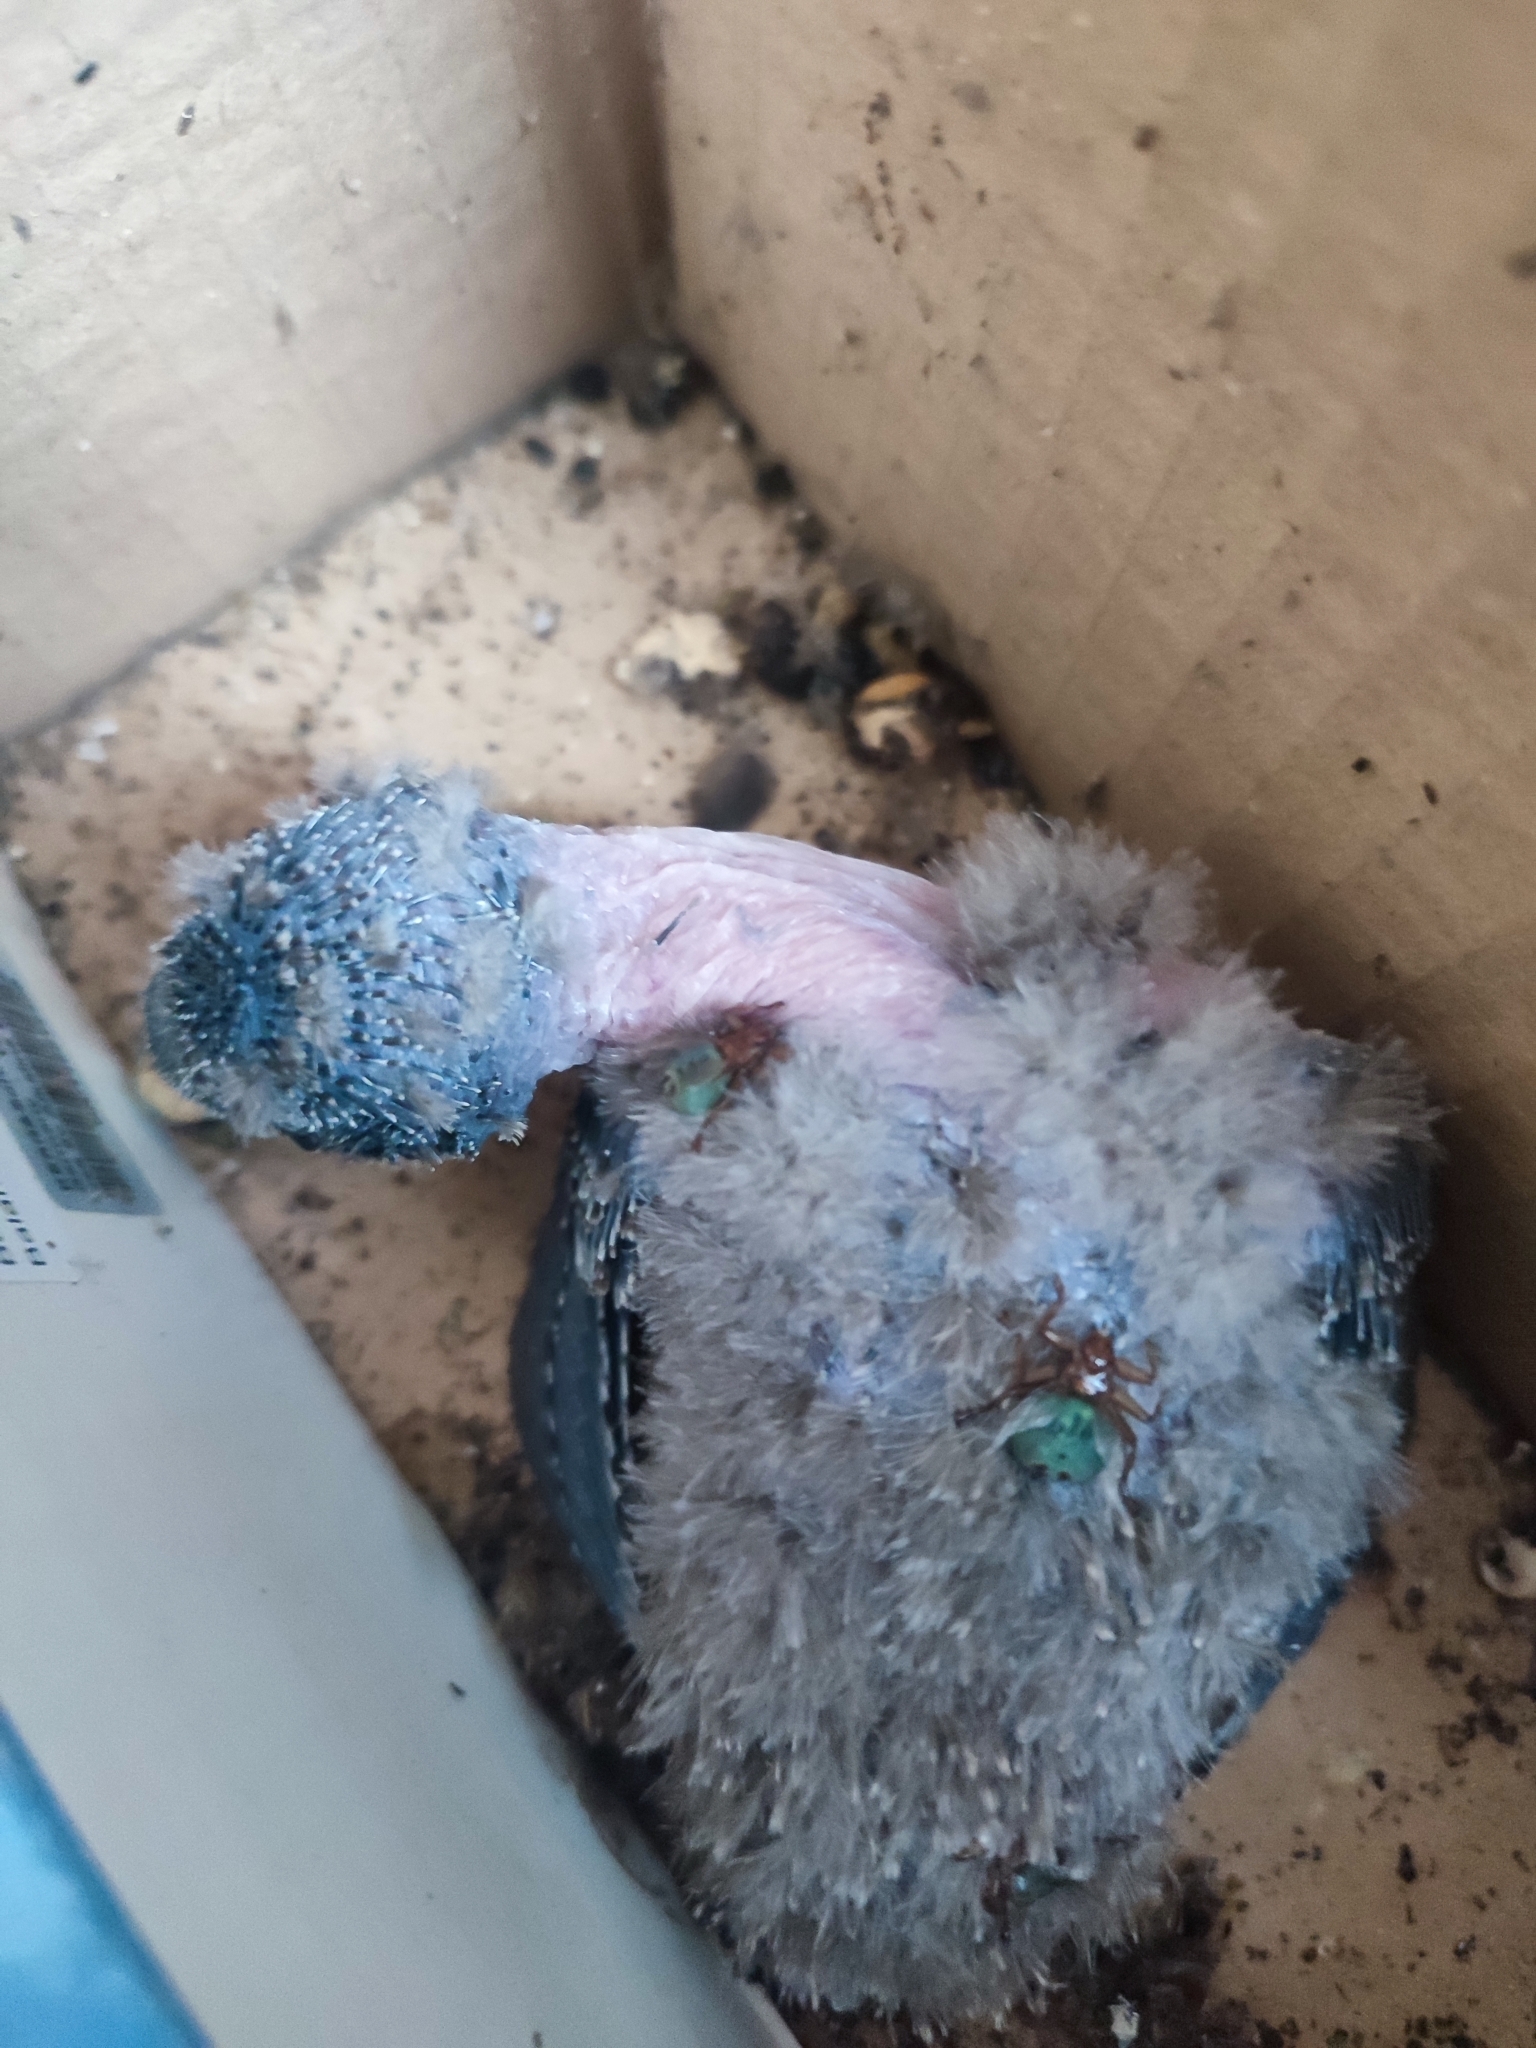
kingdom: Animalia
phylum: Arthropoda
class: Insecta
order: Diptera
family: Hippoboscidae
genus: Crataerina
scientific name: Crataerina melbae
